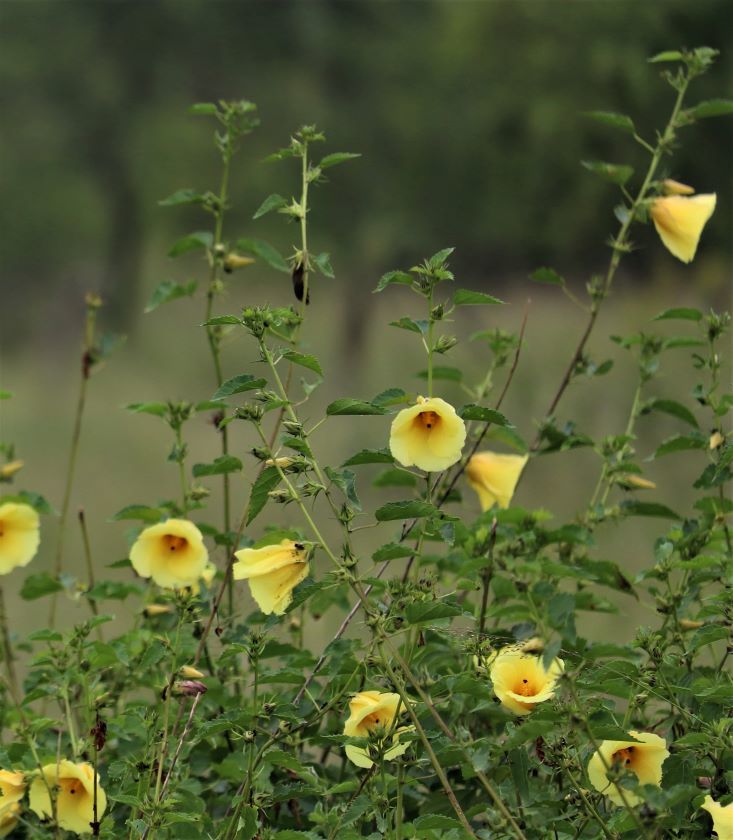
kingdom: Plantae
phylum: Tracheophyta
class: Magnoliopsida
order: Malvales
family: Malvaceae
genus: Hibiscus
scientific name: Hibiscus dongolensis
